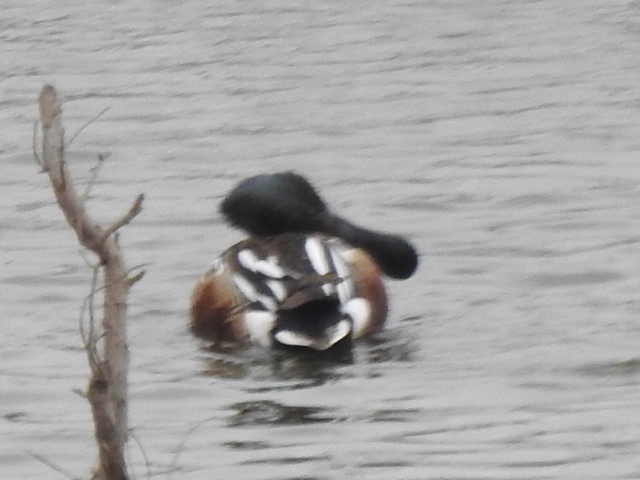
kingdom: Animalia
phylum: Chordata
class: Aves
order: Anseriformes
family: Anatidae
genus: Spatula
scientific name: Spatula clypeata
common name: Northern shoveler
